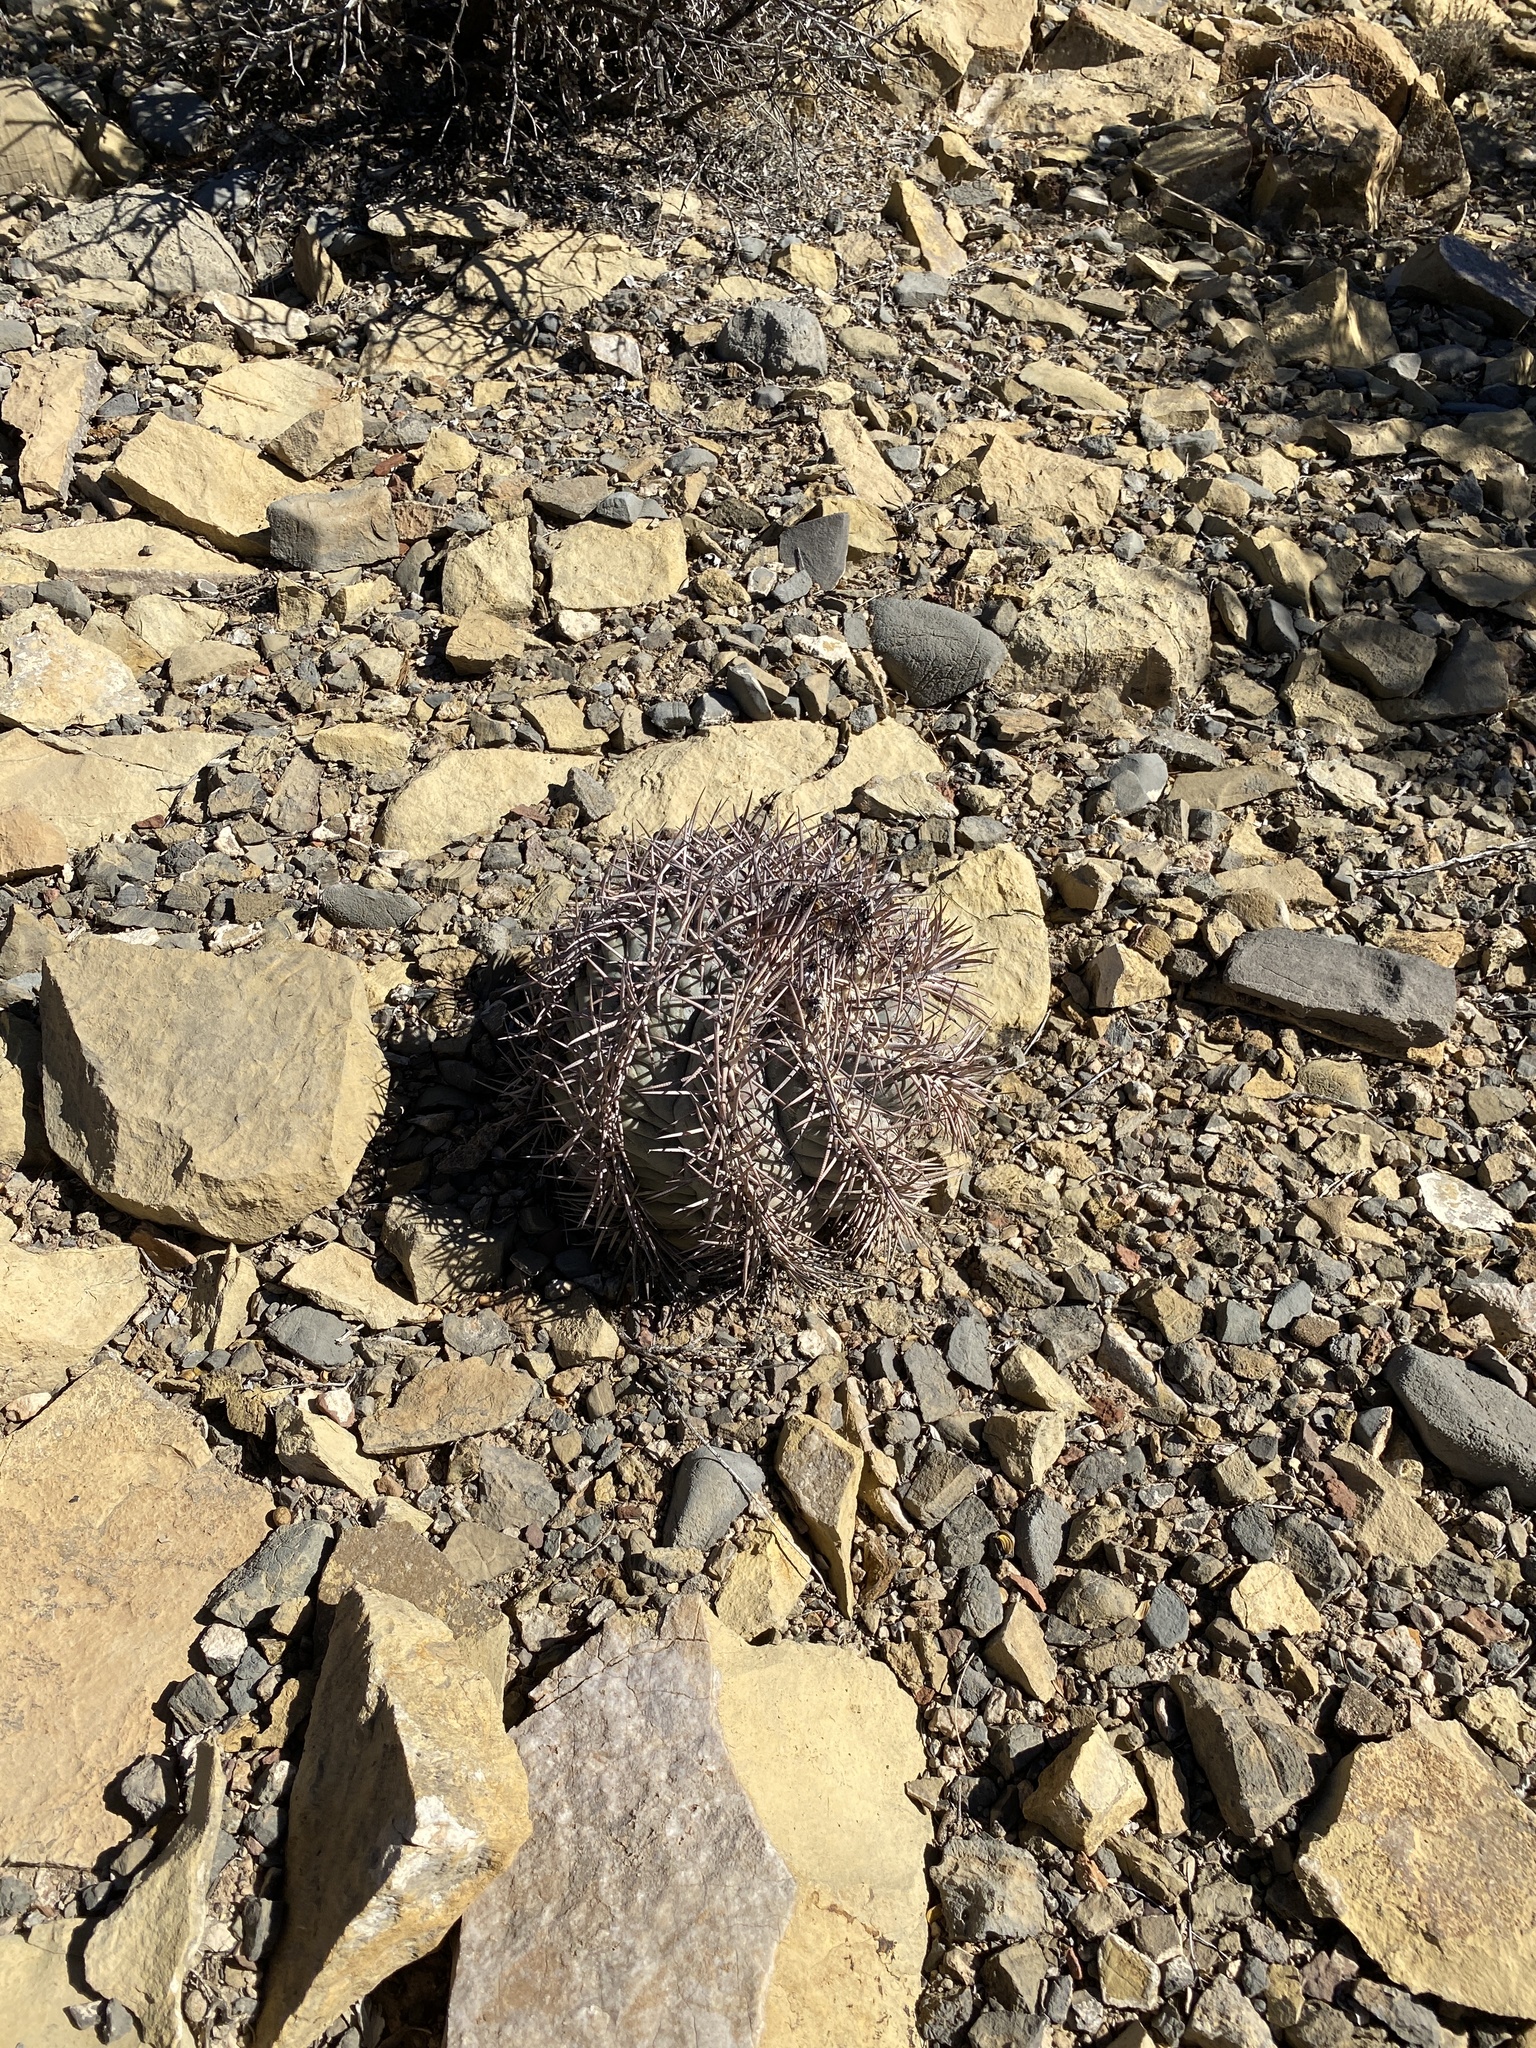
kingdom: Plantae
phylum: Tracheophyta
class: Magnoliopsida
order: Caryophyllales
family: Cactaceae
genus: Echinocactus
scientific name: Echinocactus horizonthalonius
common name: Devilshead
